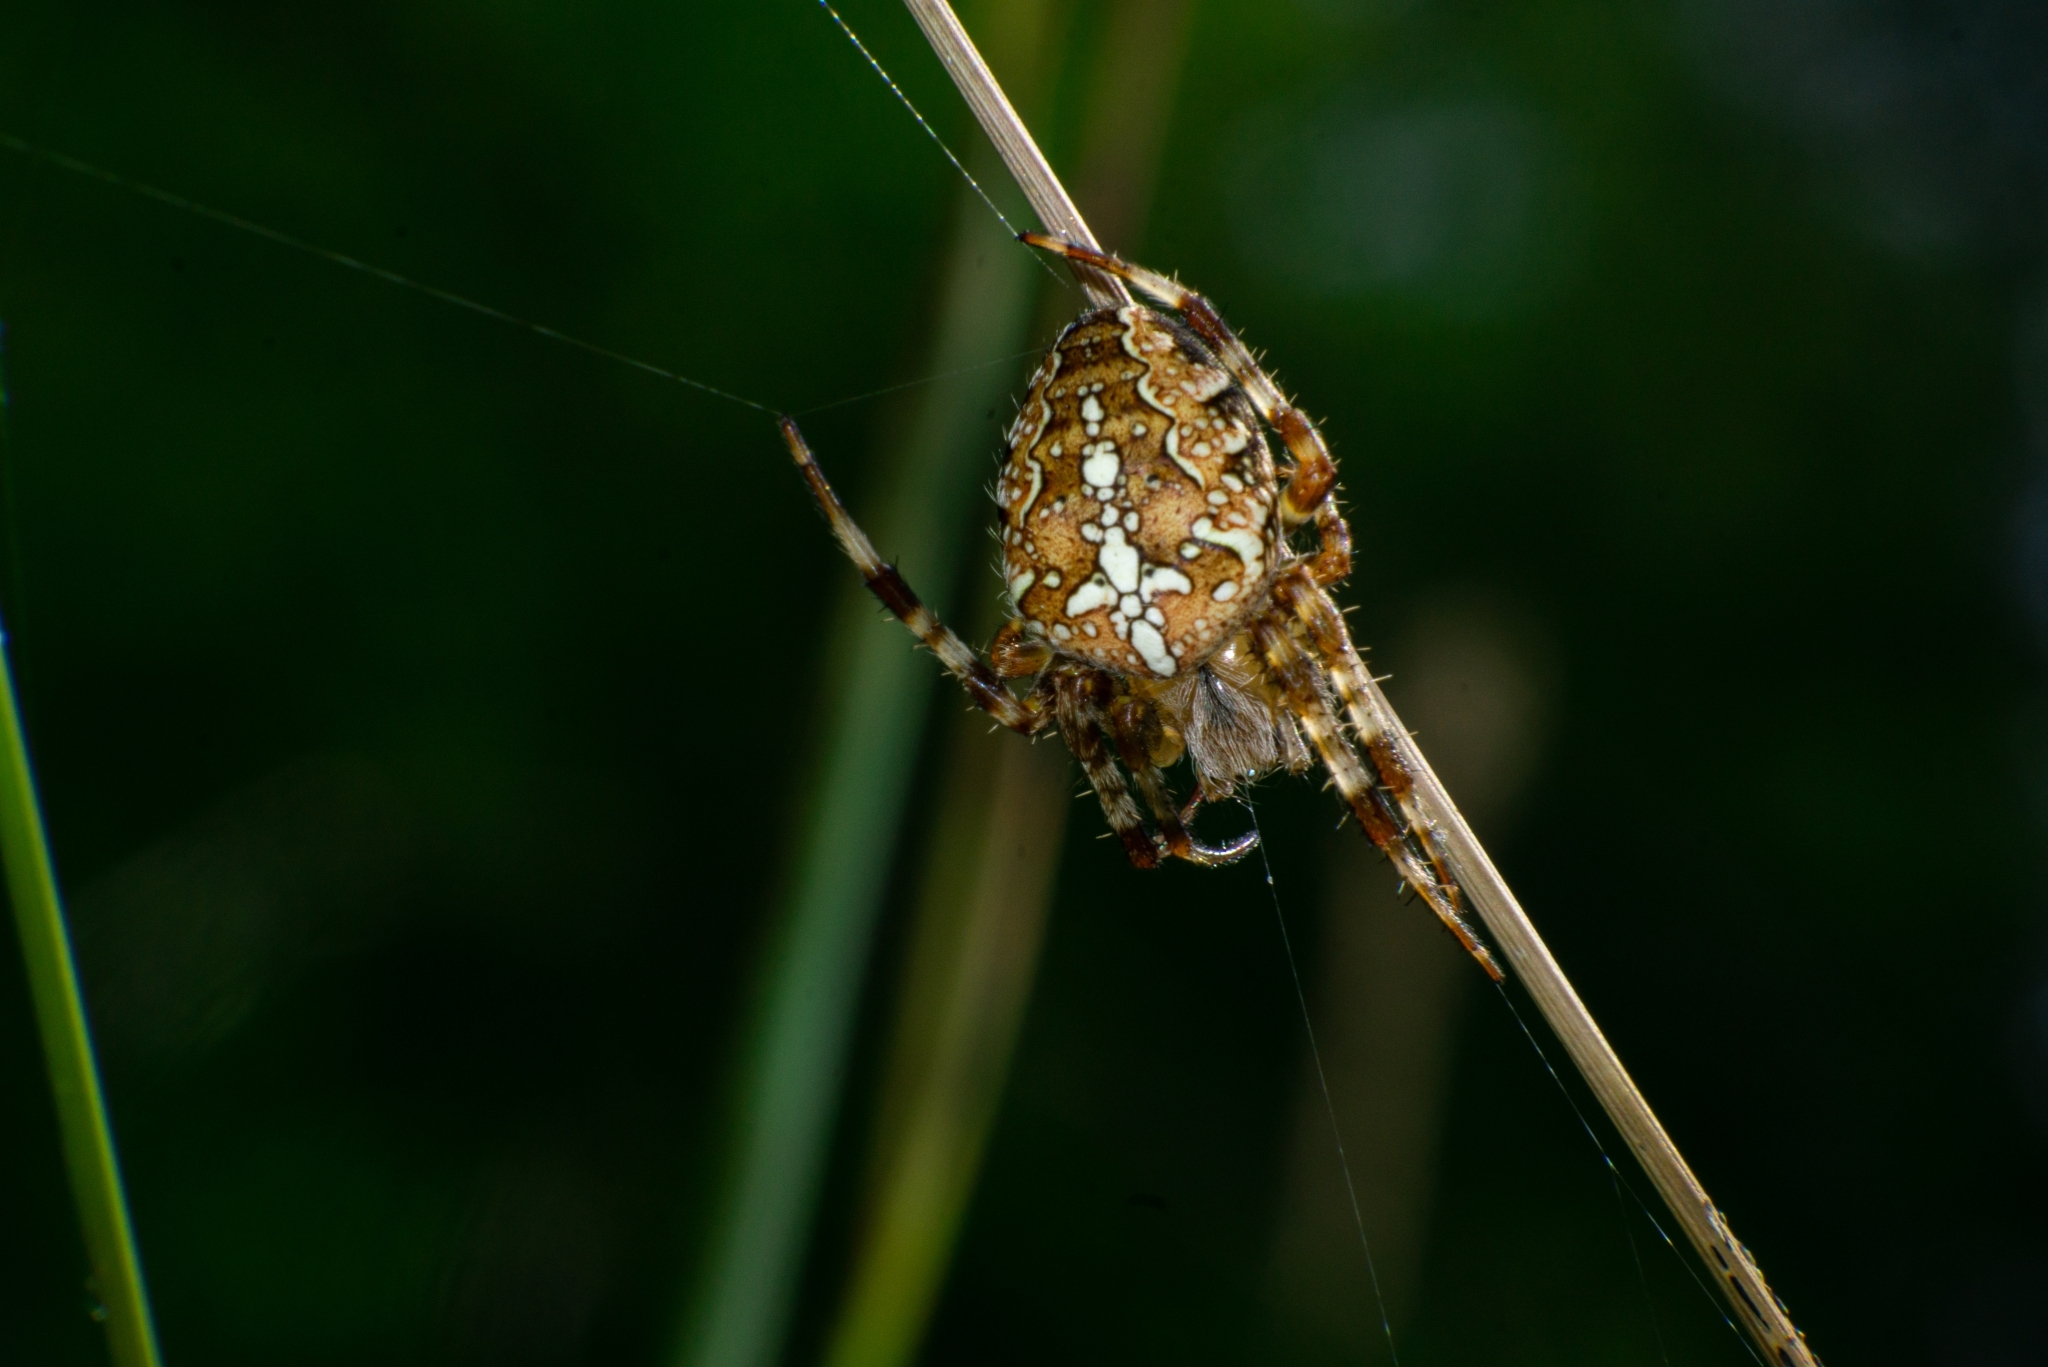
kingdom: Animalia
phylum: Arthropoda
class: Arachnida
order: Araneae
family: Araneidae
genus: Araneus
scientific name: Araneus diadematus
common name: Cross orbweaver
